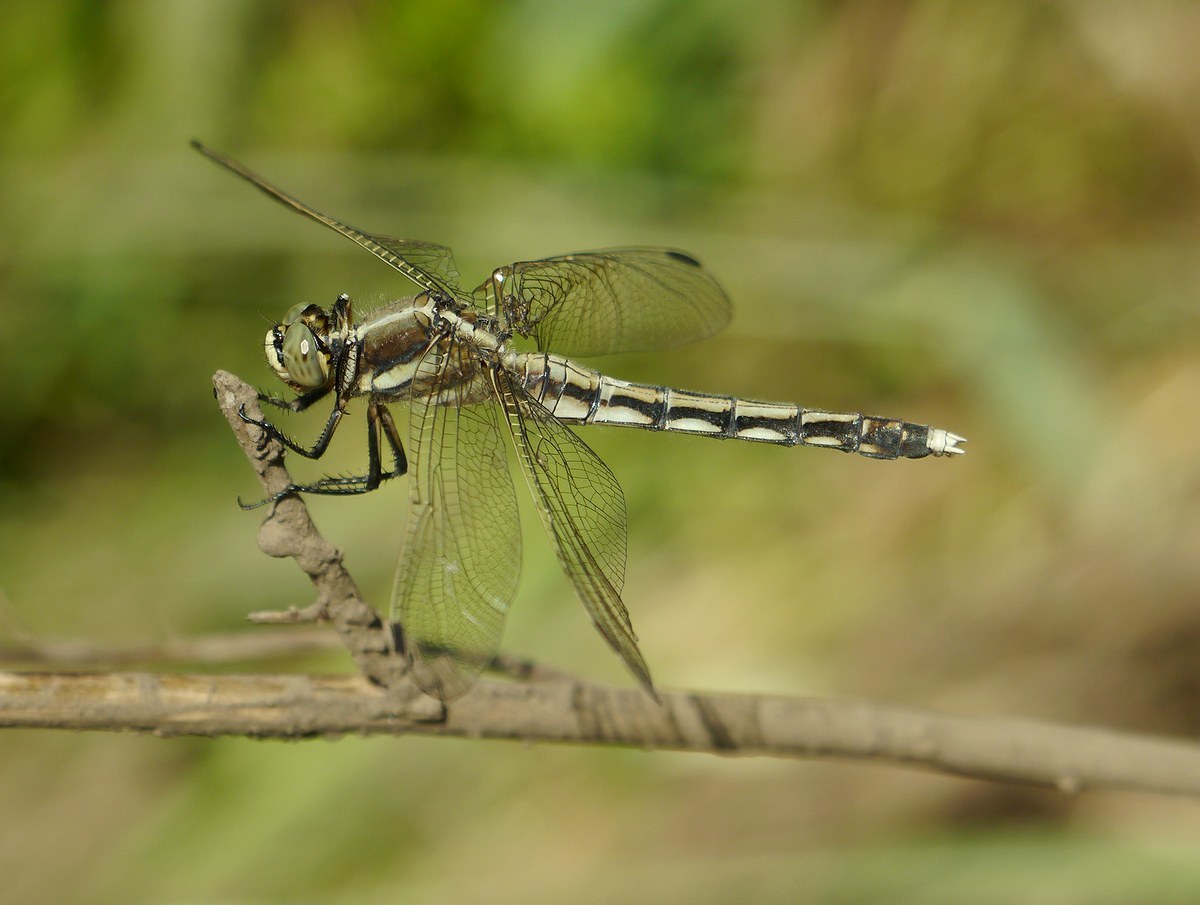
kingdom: Animalia
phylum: Arthropoda
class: Insecta
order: Odonata
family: Libellulidae
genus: Orthetrum
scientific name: Orthetrum albistylum
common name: White-tailed skimmer
